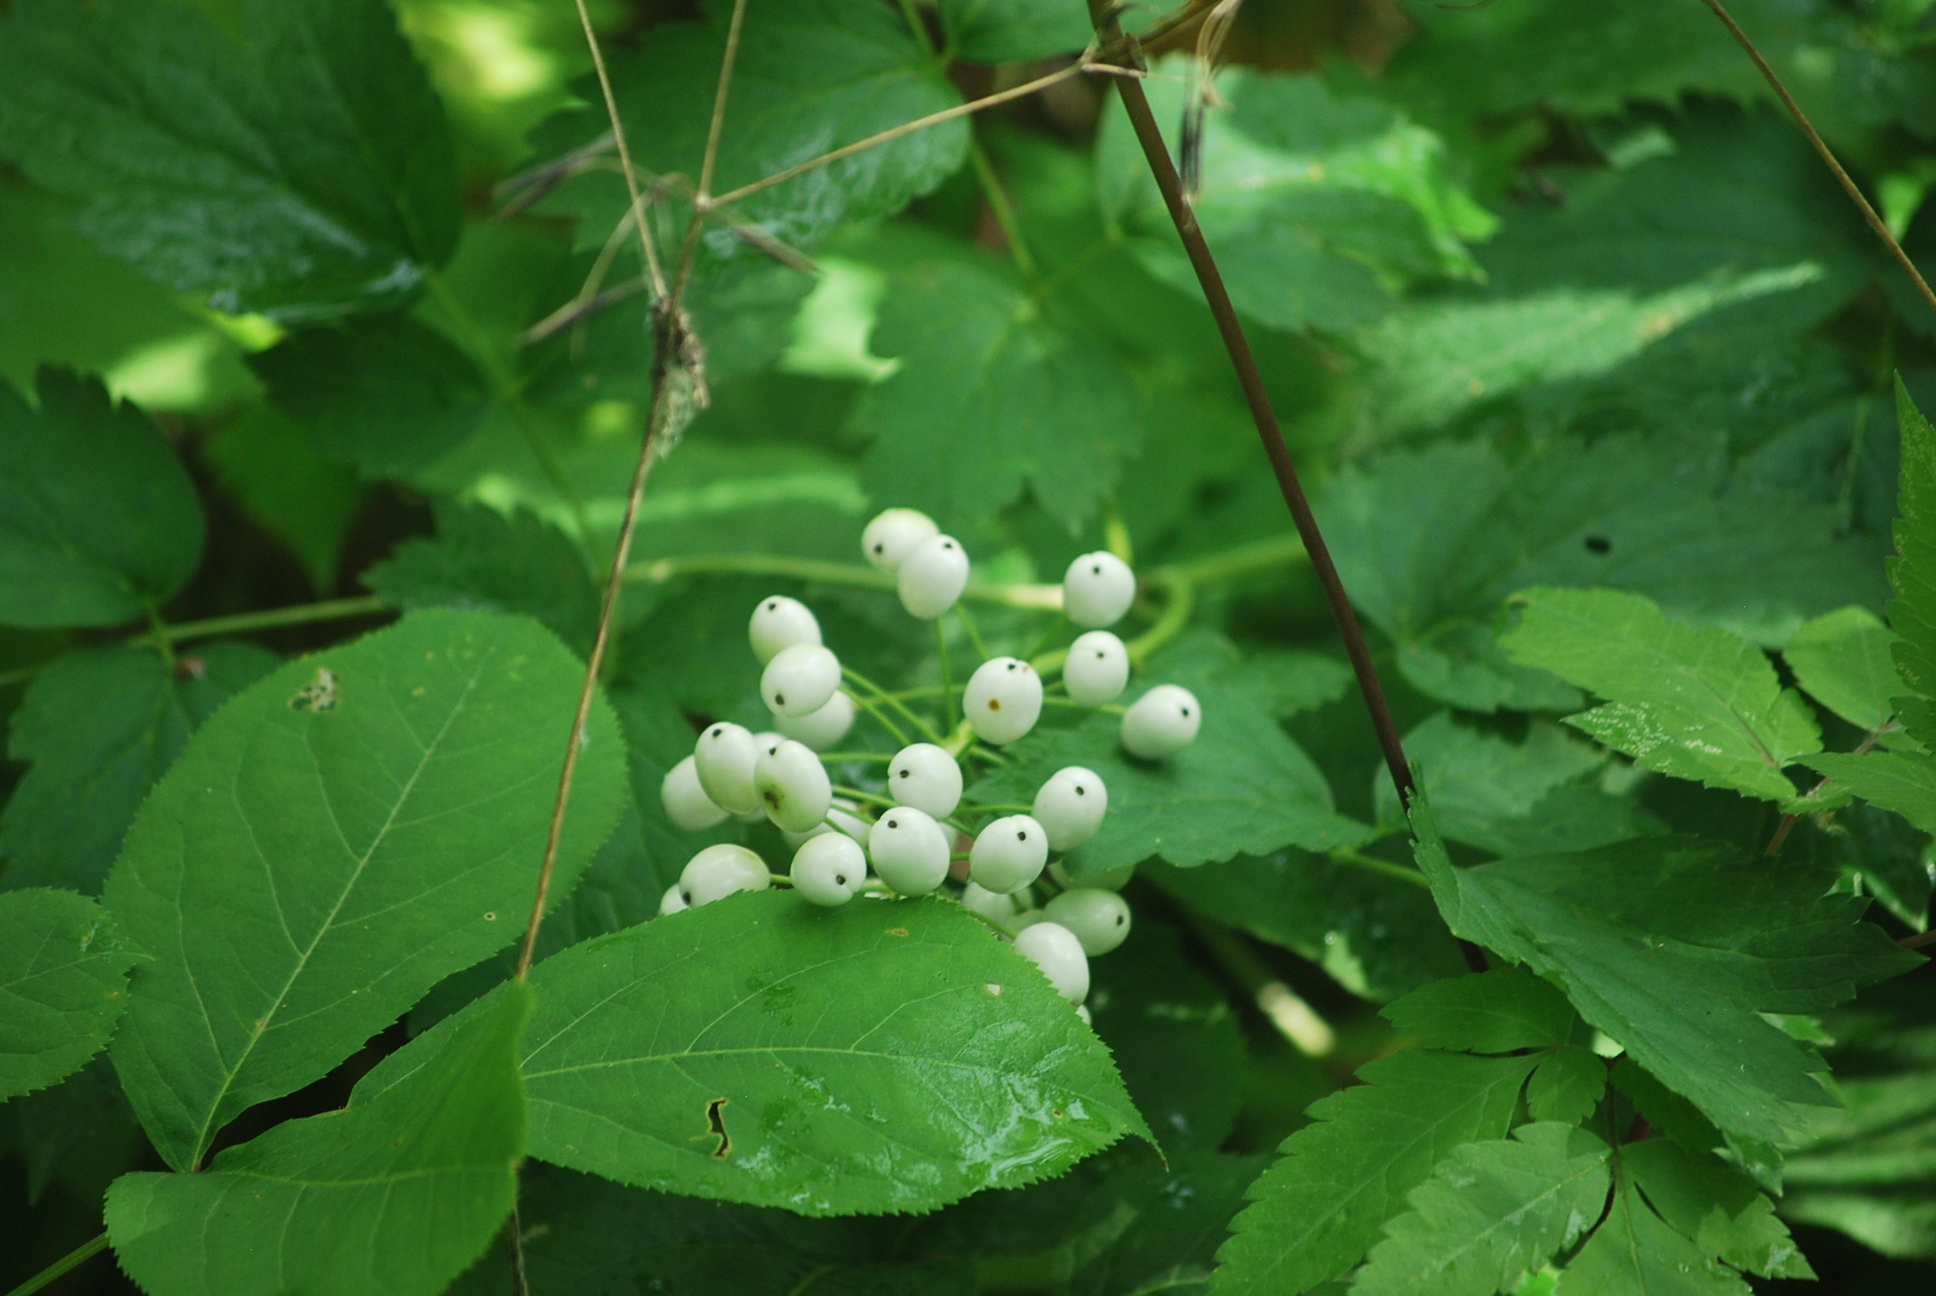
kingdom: Plantae
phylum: Tracheophyta
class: Magnoliopsida
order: Ranunculales
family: Ranunculaceae
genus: Actaea
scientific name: Actaea rubra
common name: Red baneberry
